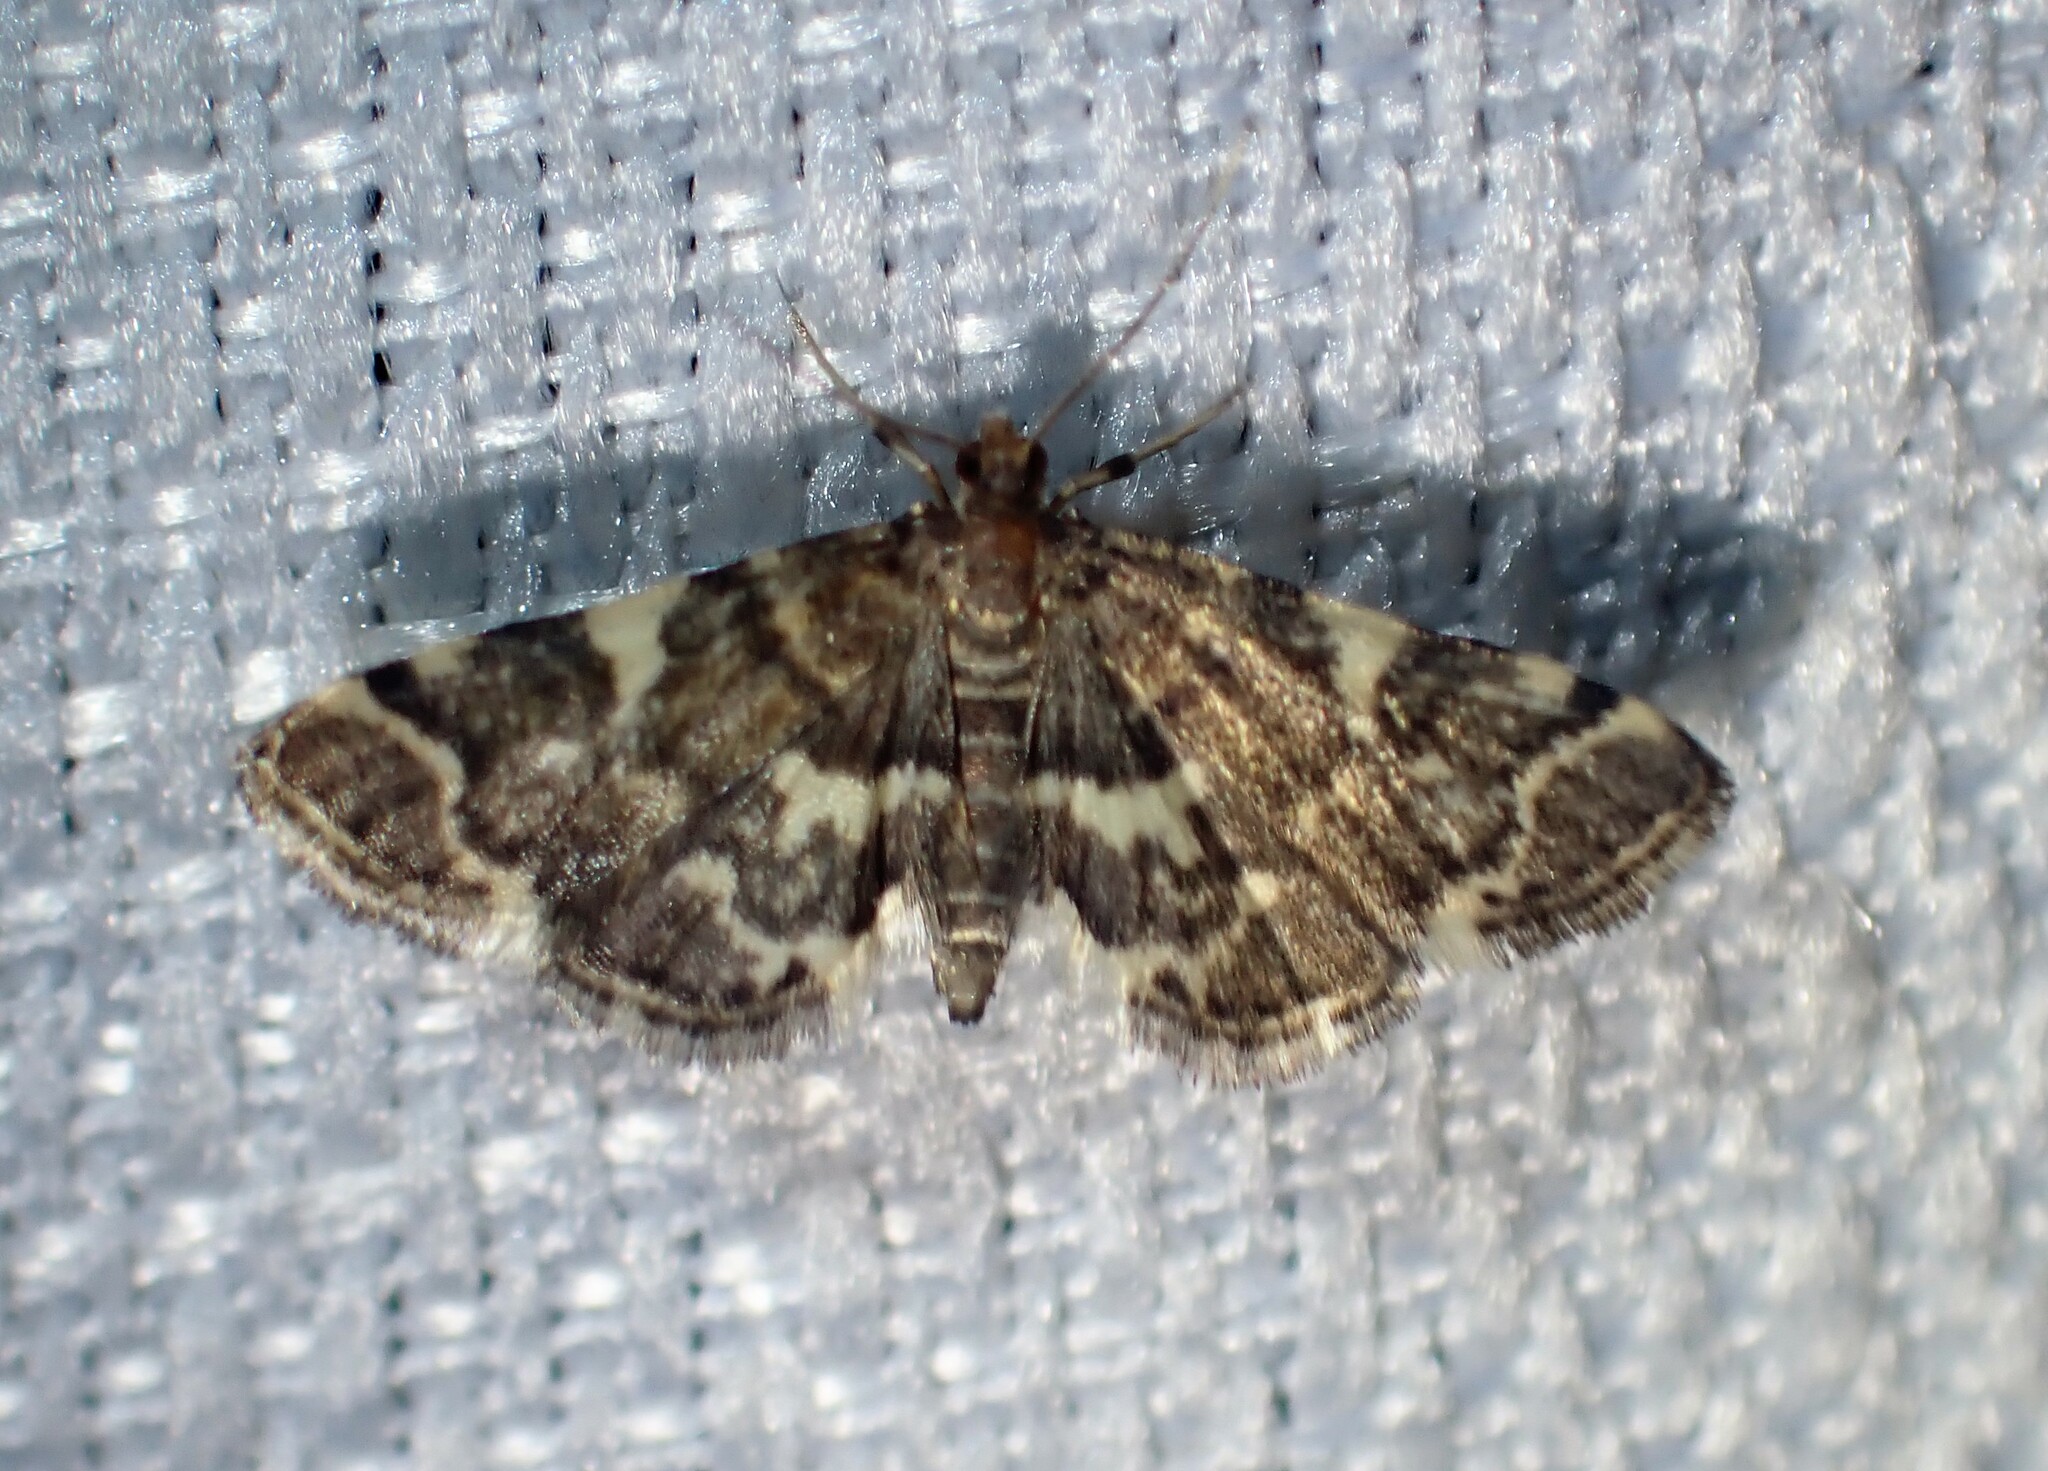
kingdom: Animalia
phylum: Arthropoda
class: Insecta
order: Lepidoptera
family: Crambidae
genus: Anageshna
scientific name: Anageshna primordialis
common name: Yellow-spotted webworm moth
